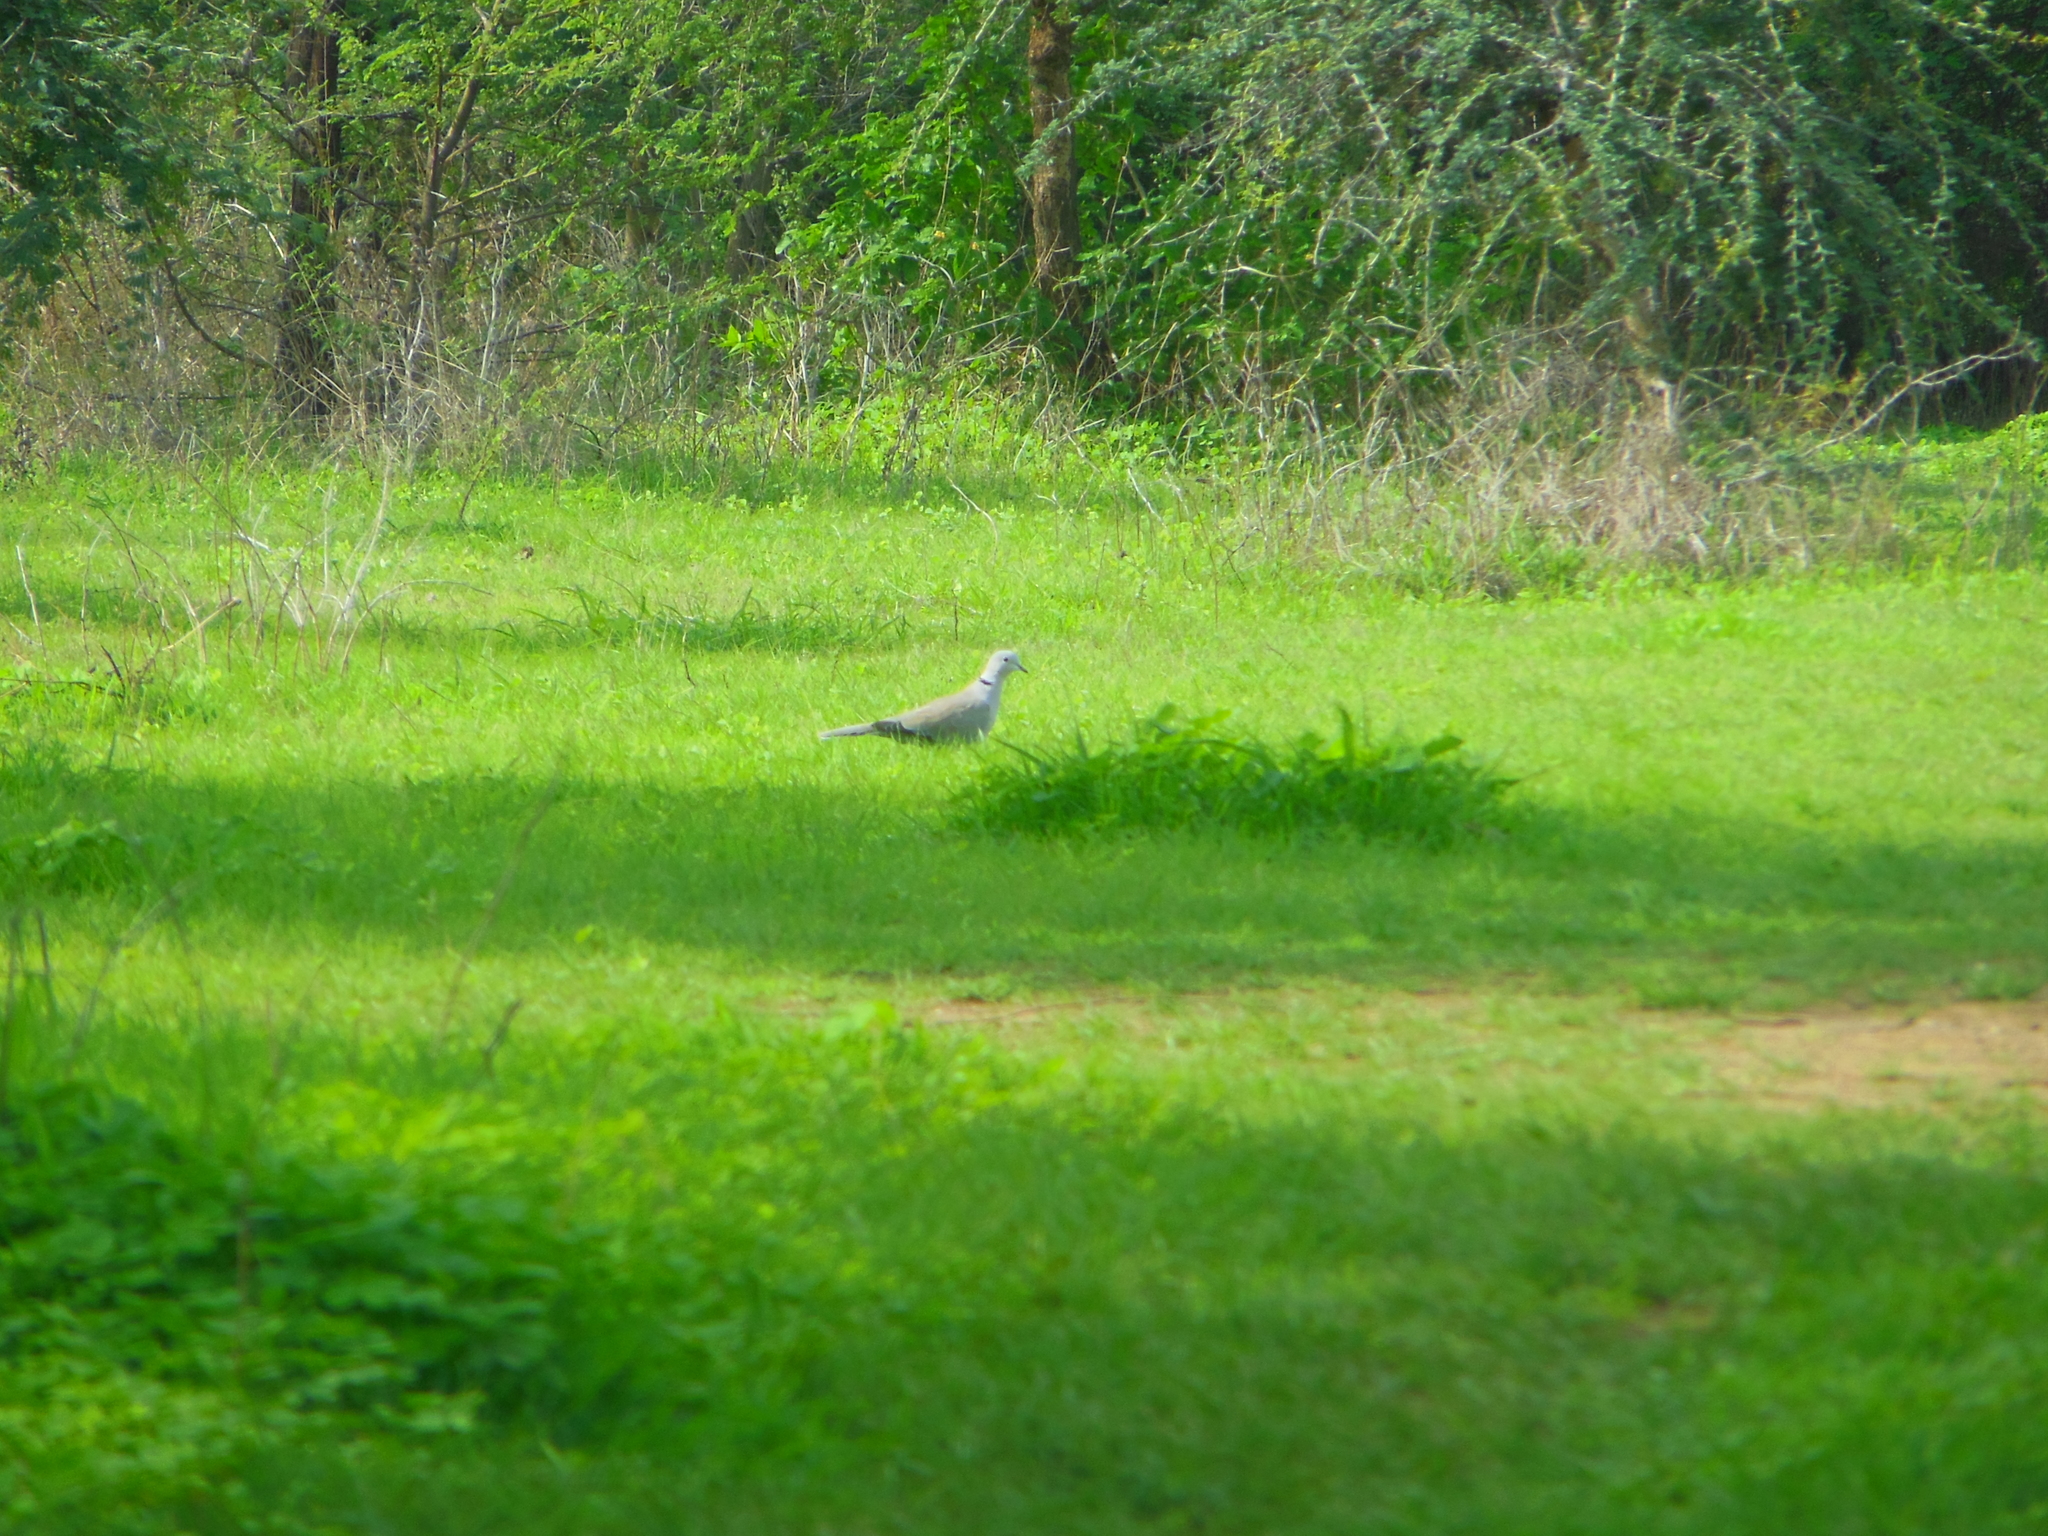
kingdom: Animalia
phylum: Chordata
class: Aves
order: Columbiformes
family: Columbidae
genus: Streptopelia
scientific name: Streptopelia decaocto
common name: Eurasian collared dove
